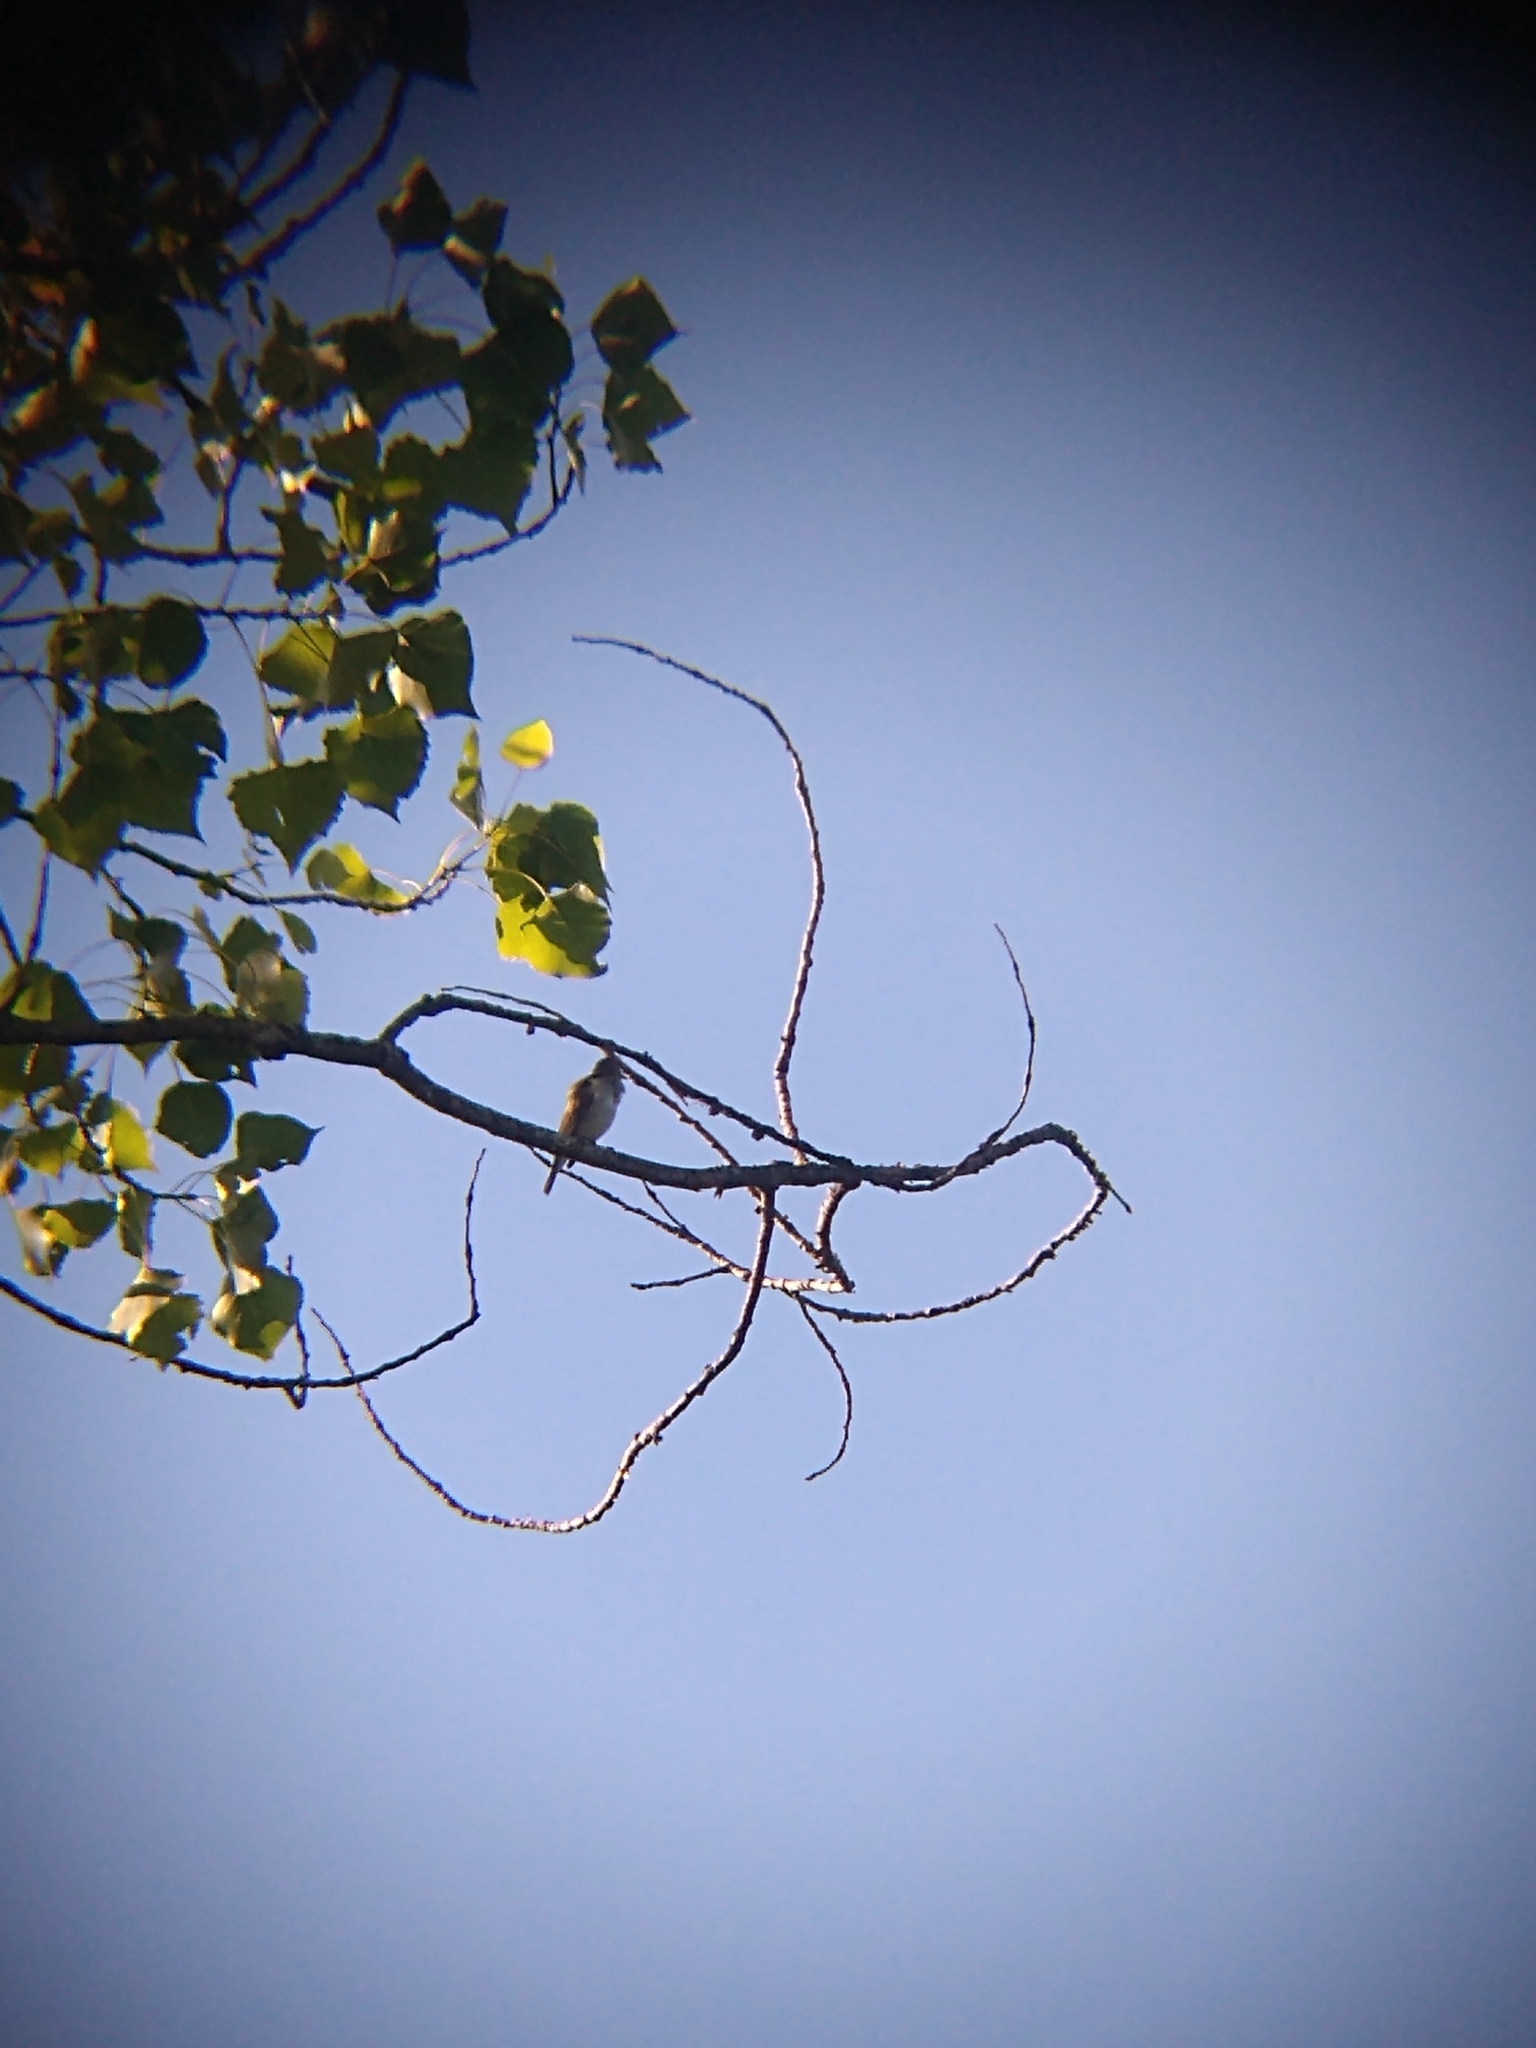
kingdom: Animalia
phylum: Chordata
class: Aves
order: Passeriformes
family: Vireonidae
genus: Vireo
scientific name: Vireo olivaceus
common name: Red-eyed vireo
